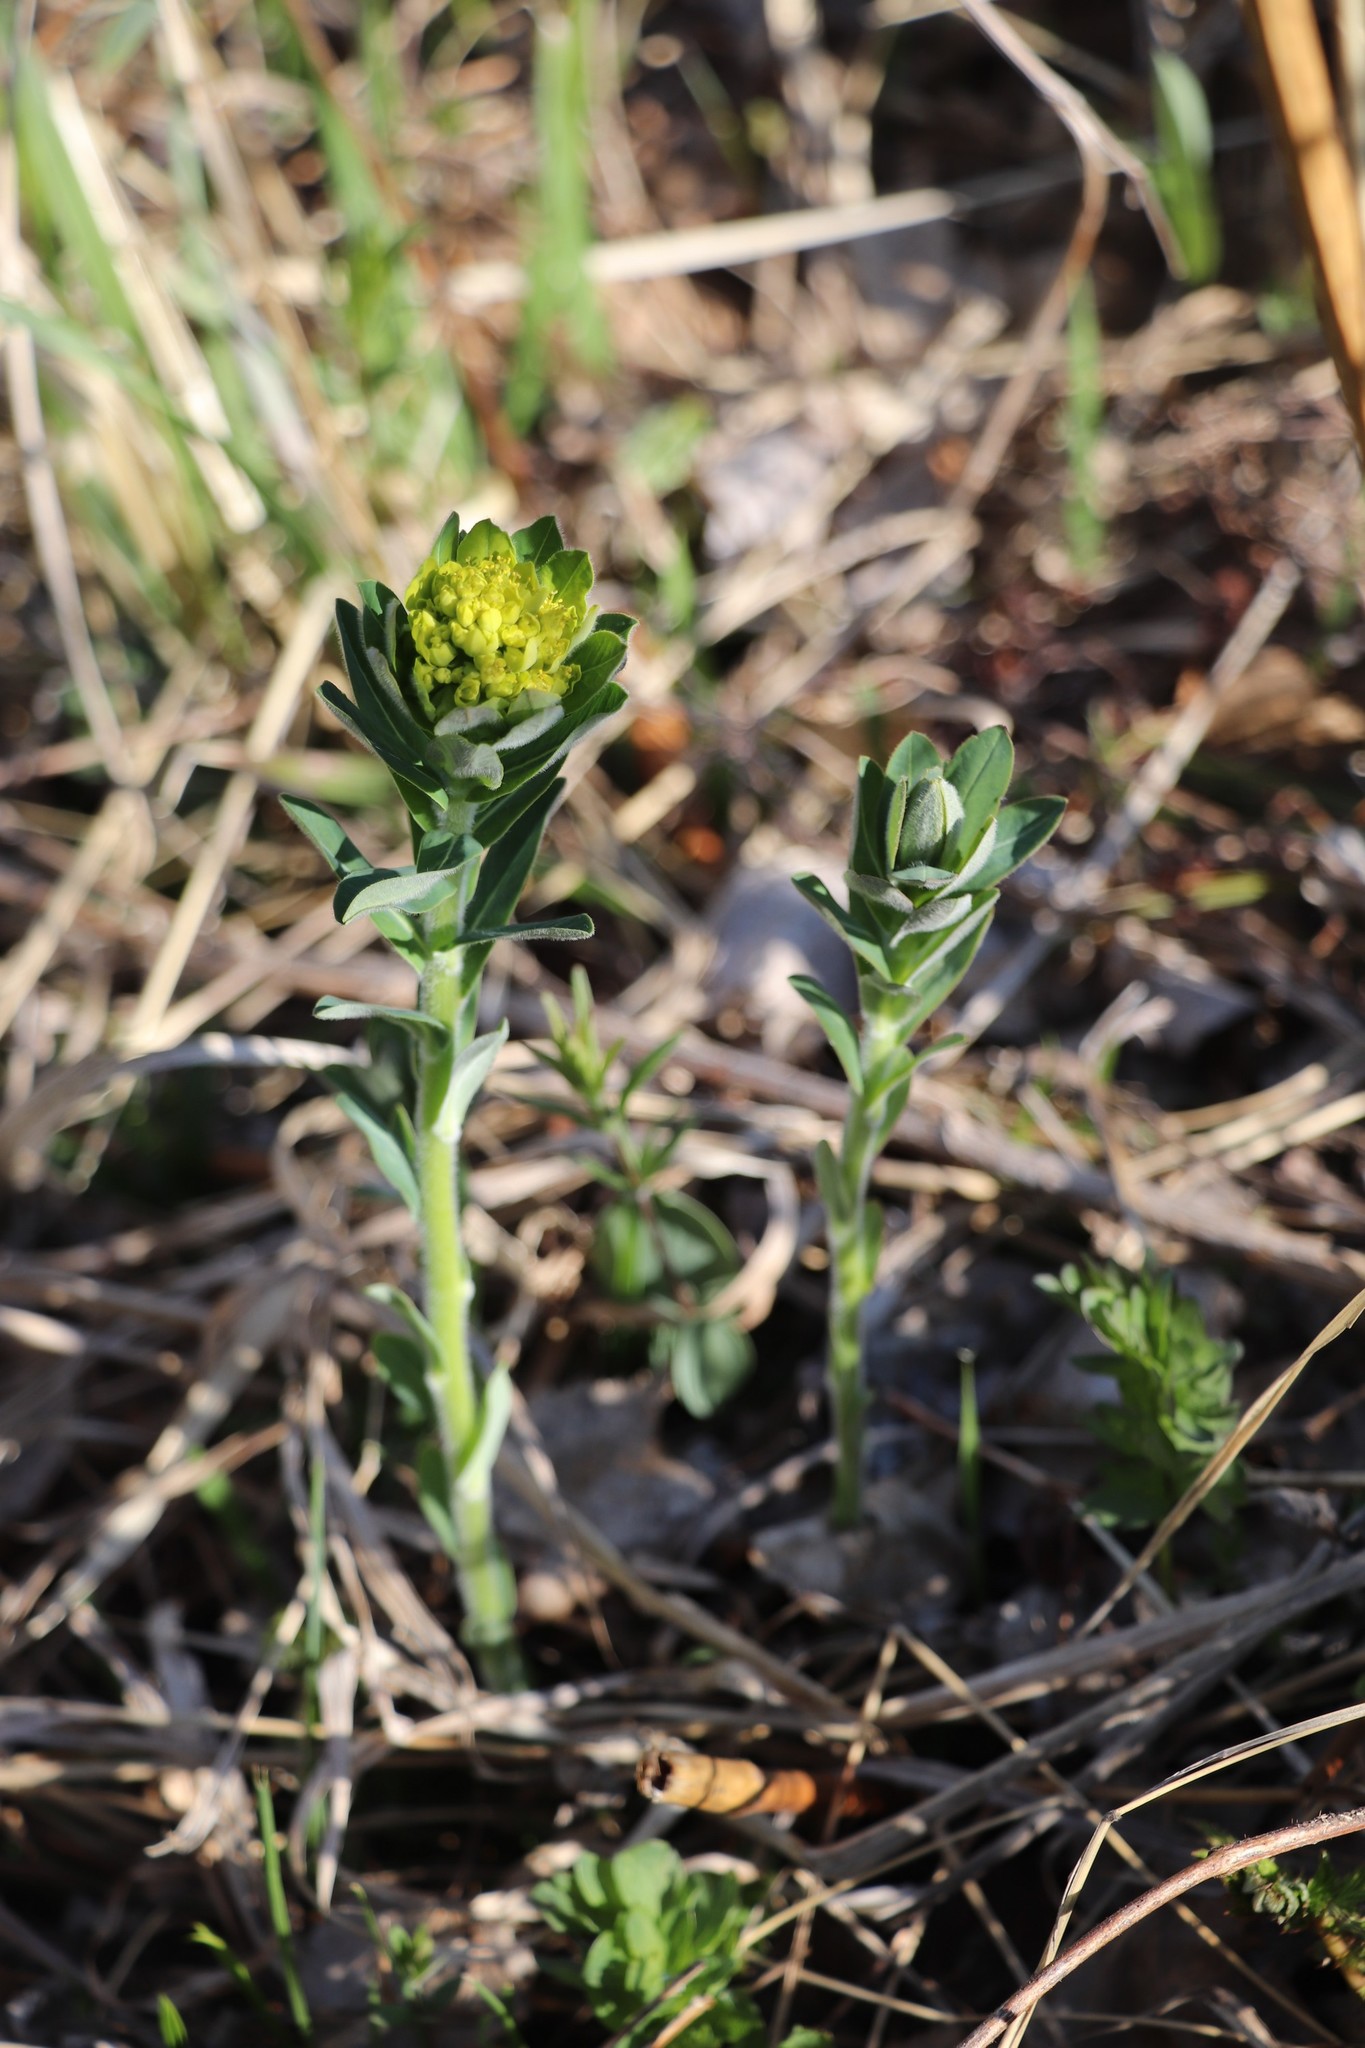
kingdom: Plantae
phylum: Tracheophyta
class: Magnoliopsida
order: Malpighiales
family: Euphorbiaceae
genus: Euphorbia
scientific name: Euphorbia pilosa
